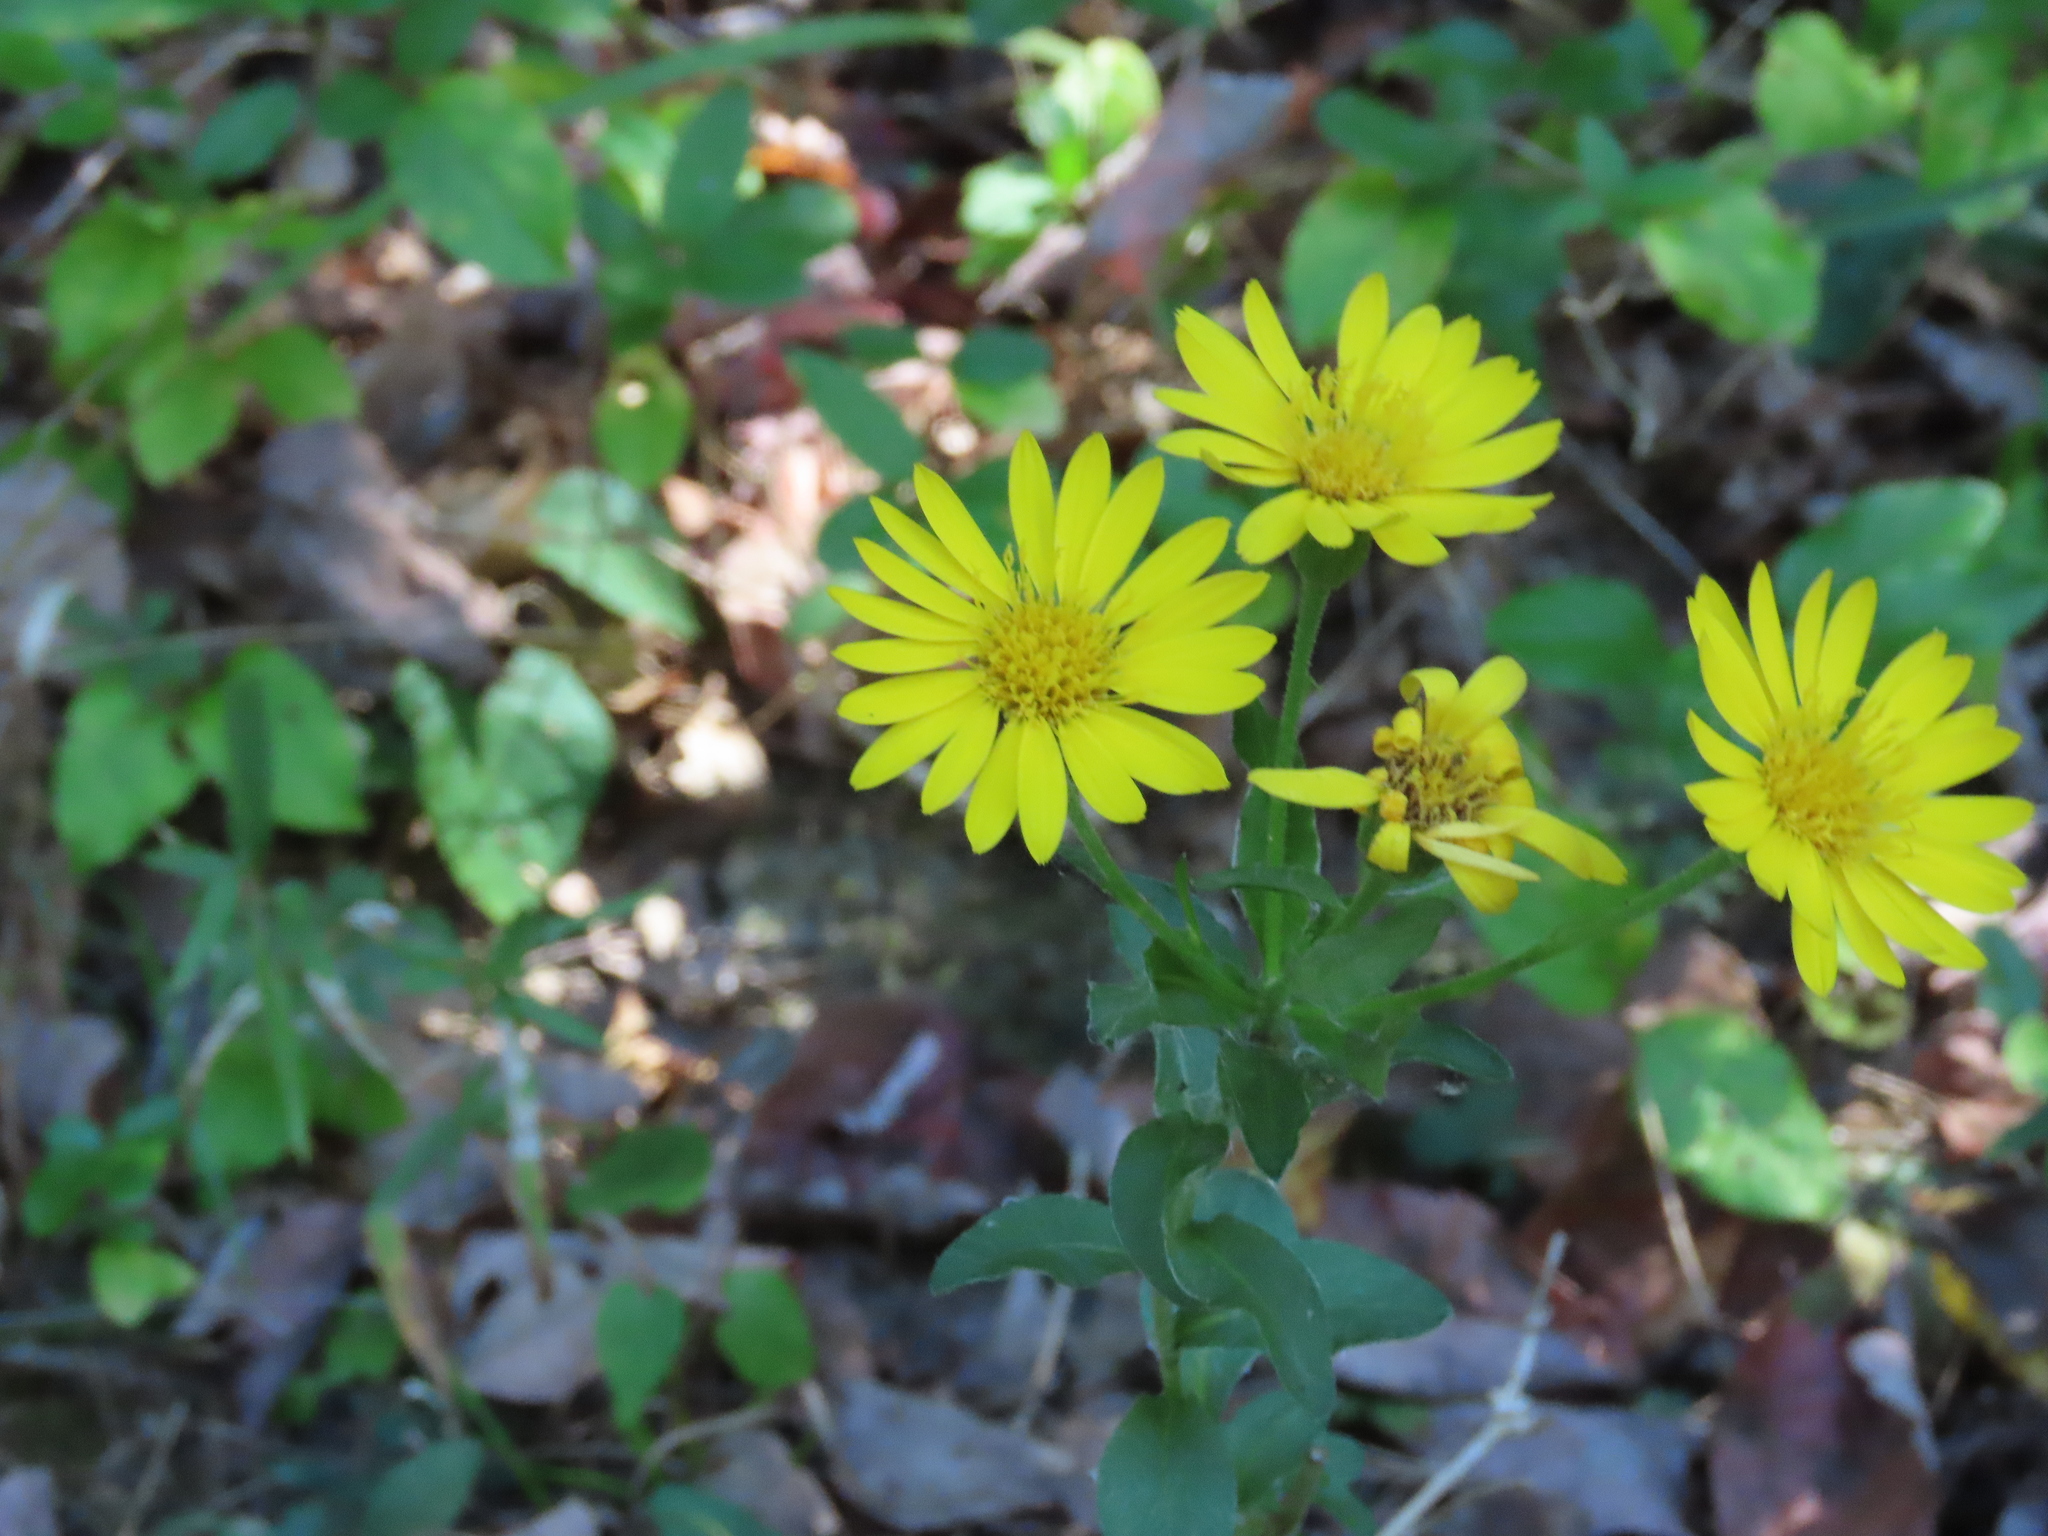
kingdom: Plantae
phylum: Tracheophyta
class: Magnoliopsida
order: Asterales
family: Asteraceae
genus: Chrysopsis
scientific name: Chrysopsis mariana
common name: Maryland golden-aster
